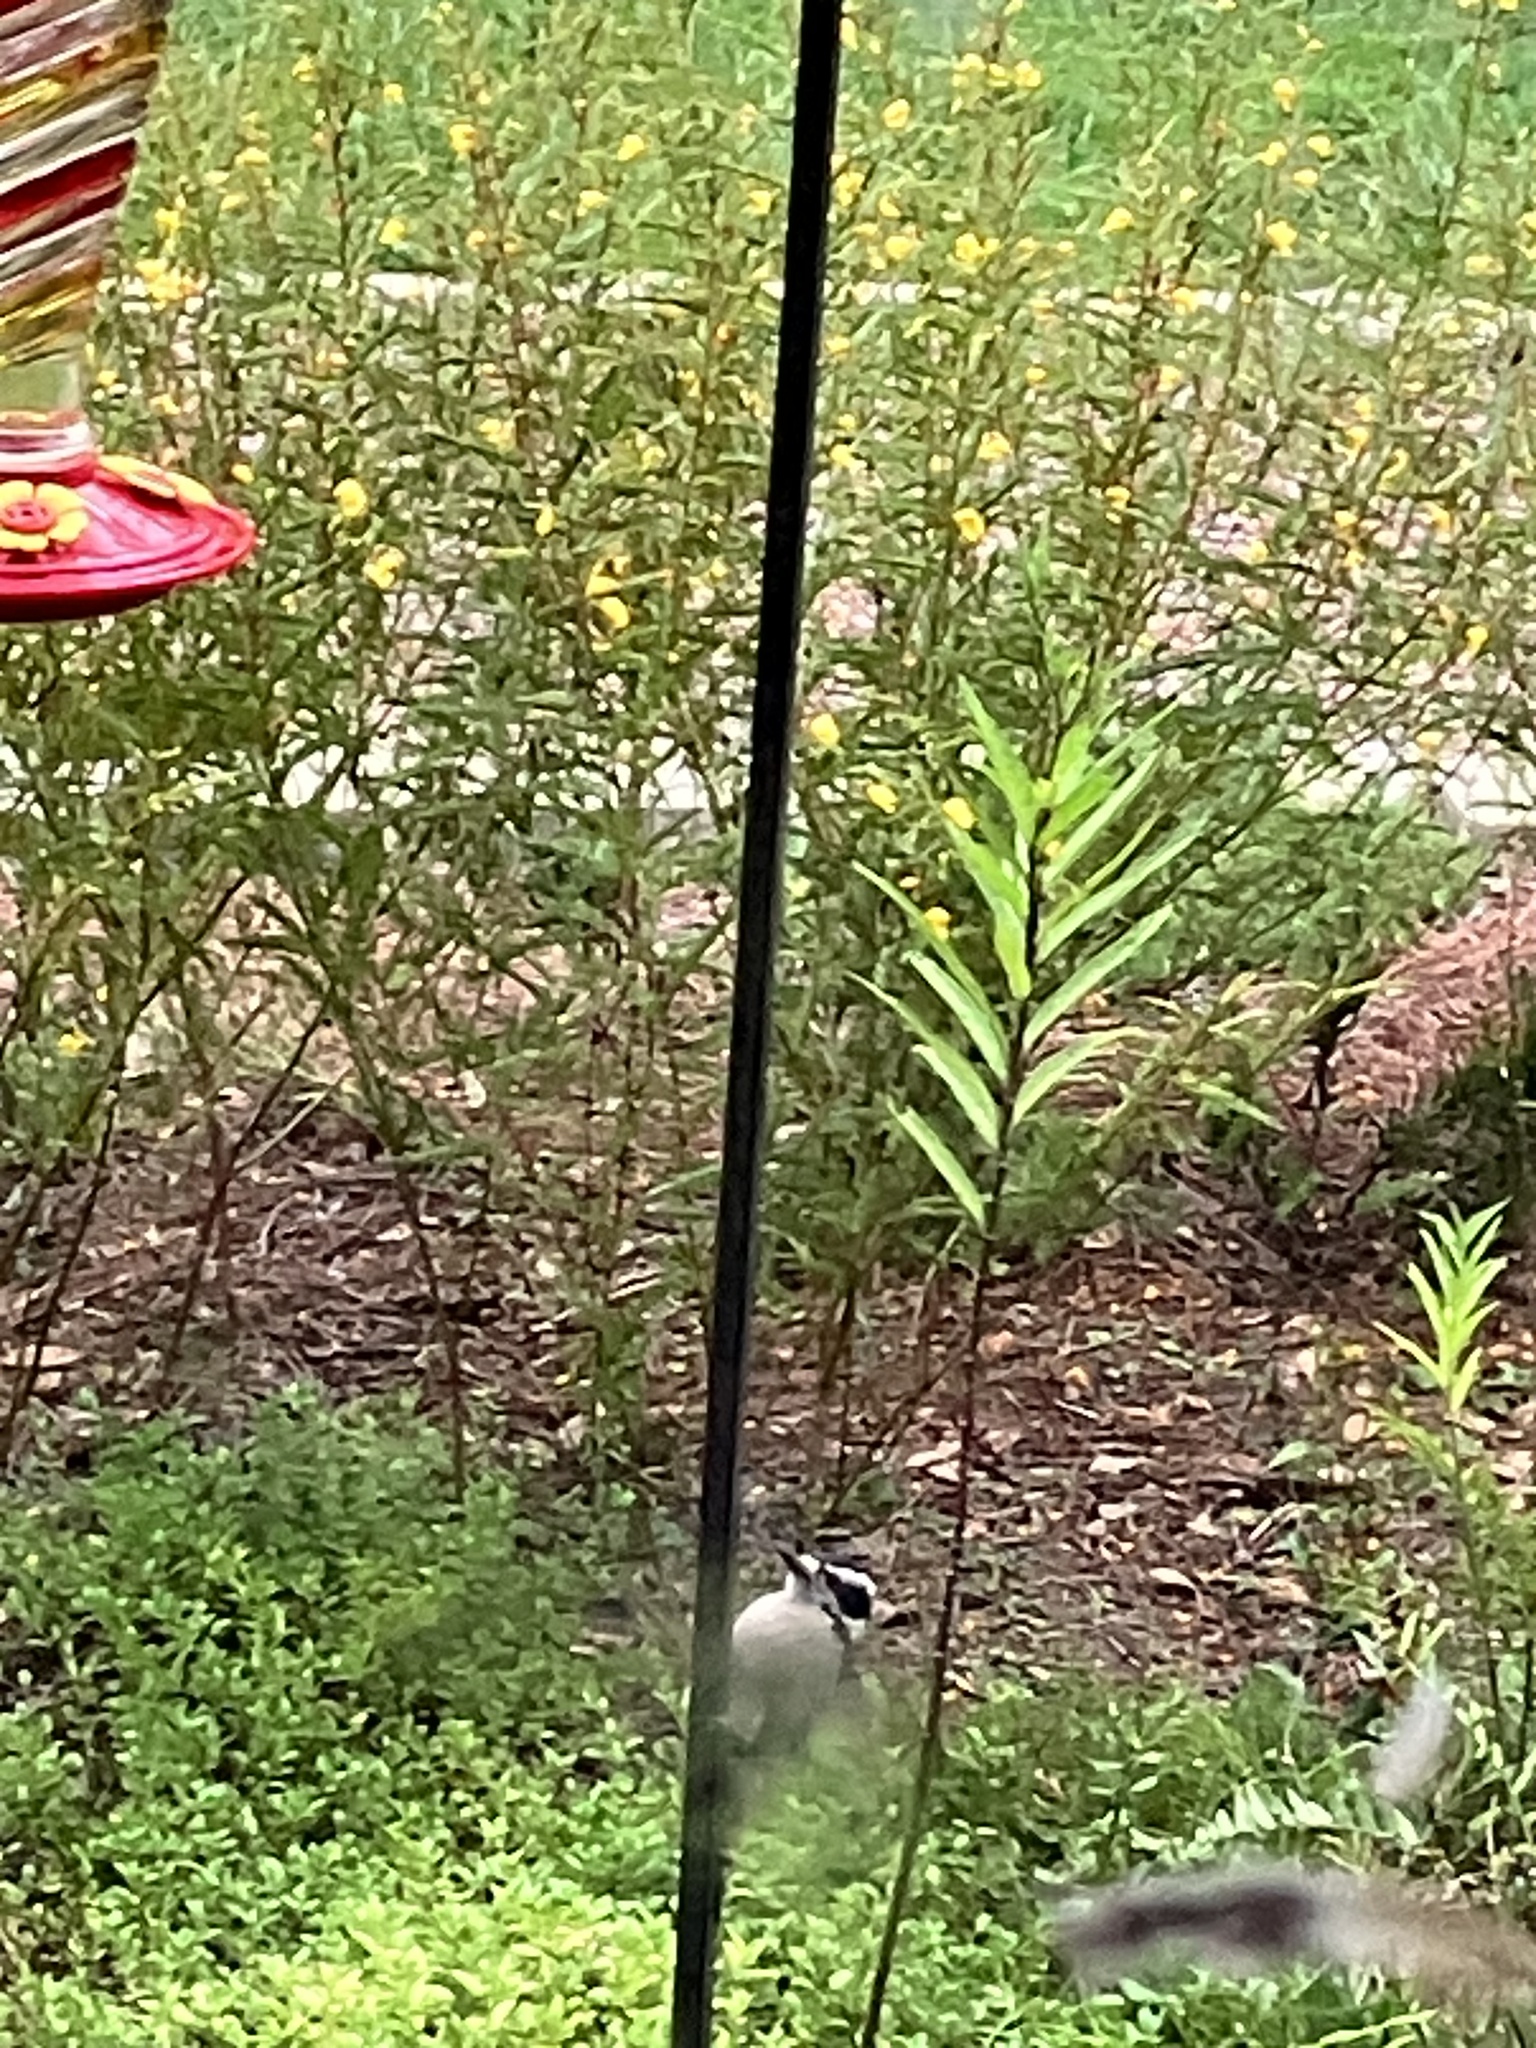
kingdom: Animalia
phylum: Chordata
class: Aves
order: Piciformes
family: Picidae
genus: Dryobates
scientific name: Dryobates pubescens
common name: Downy woodpecker
